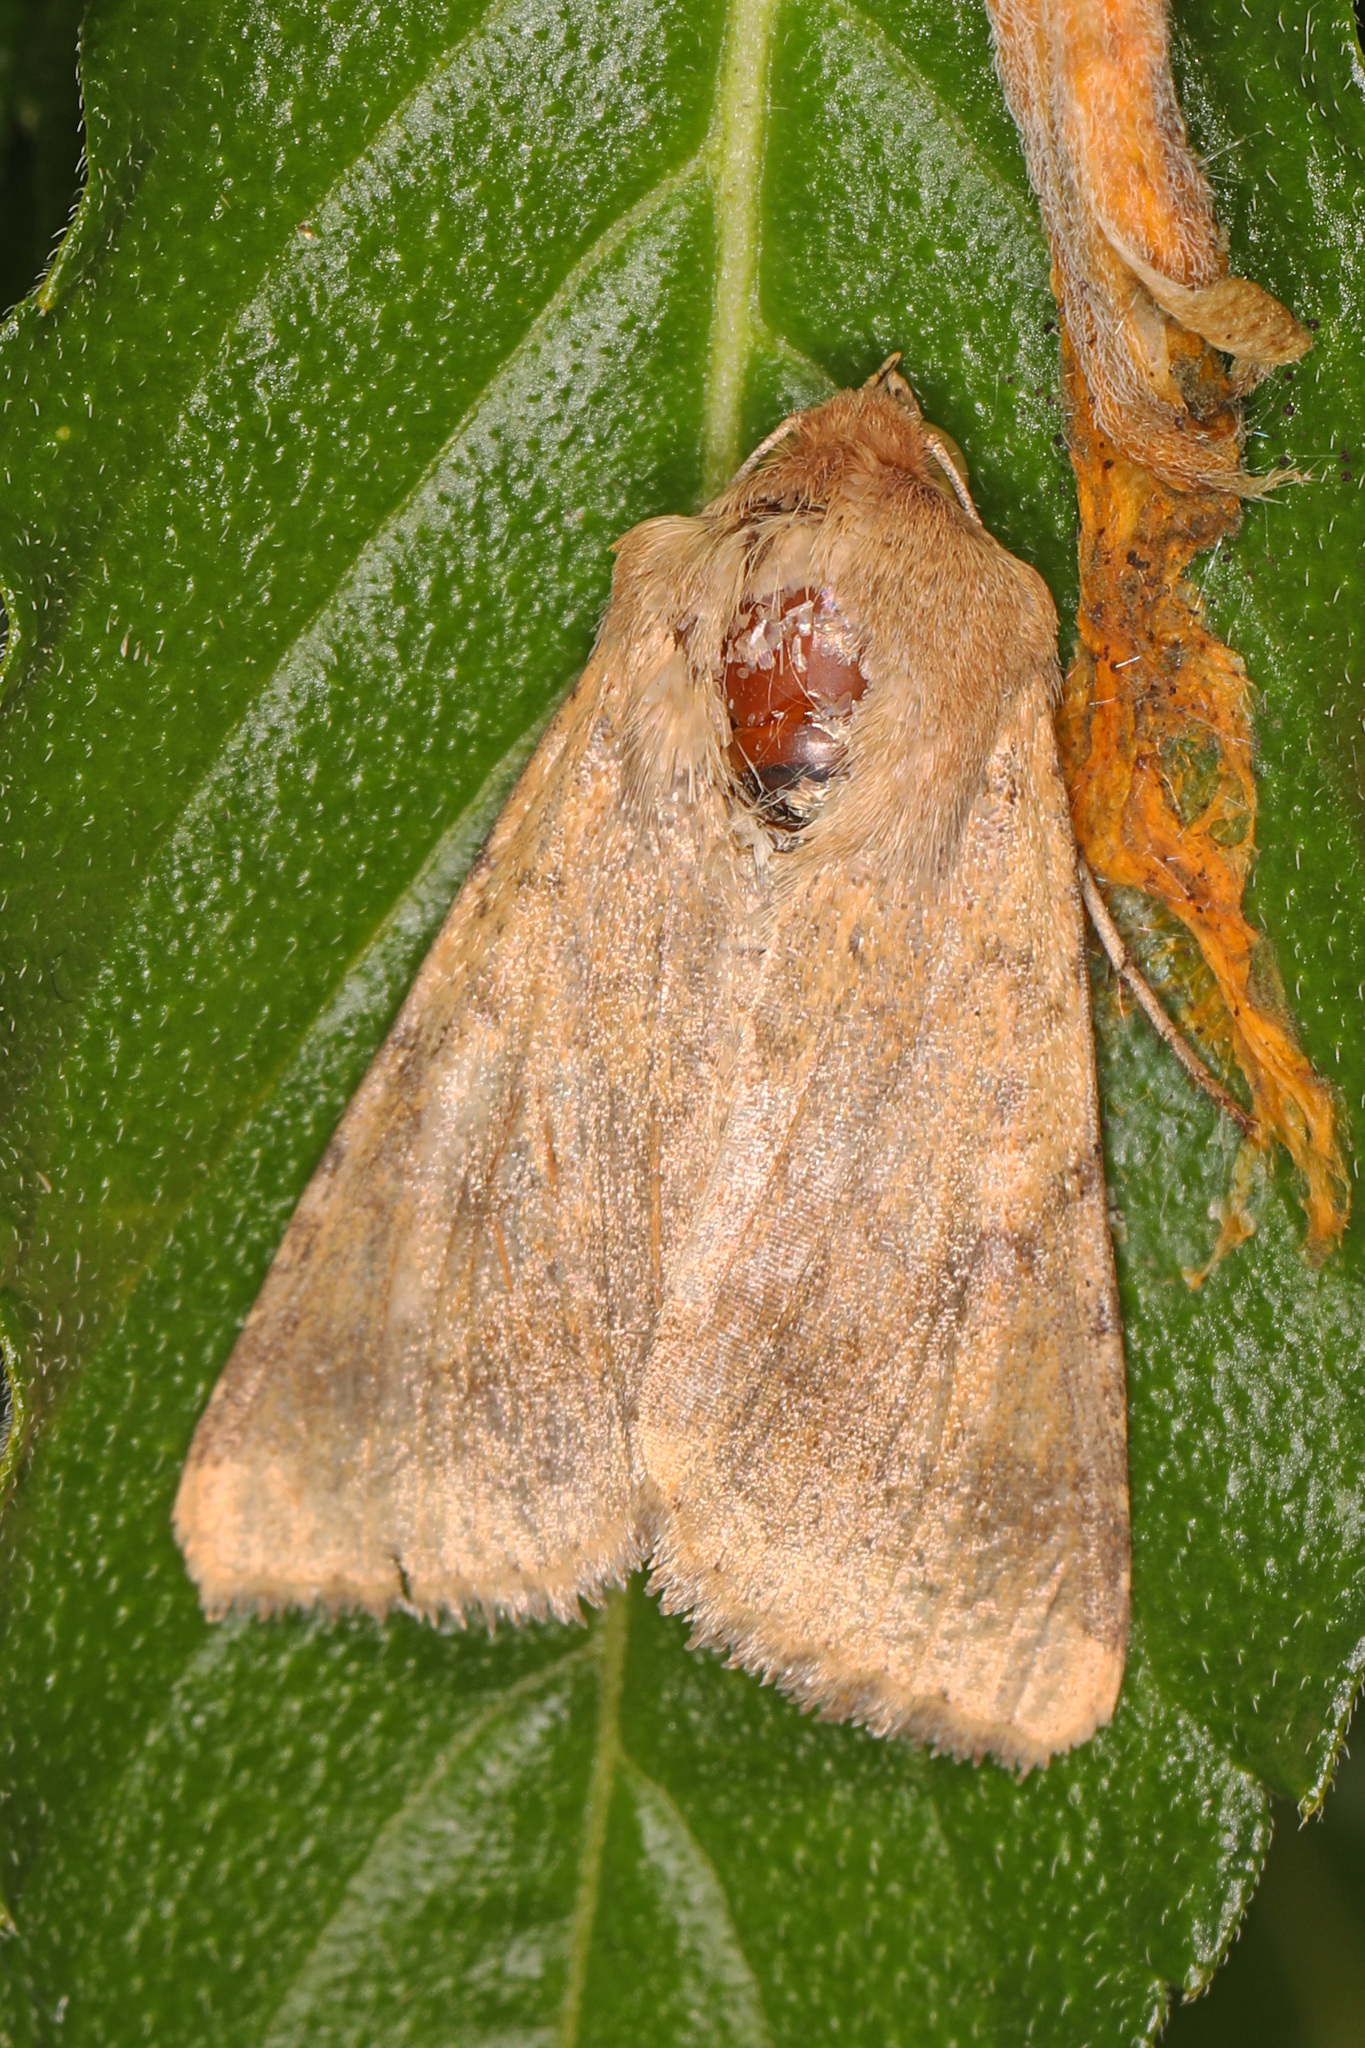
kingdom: Animalia
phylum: Arthropoda
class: Insecta
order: Lepidoptera
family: Noctuidae
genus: Helicoverpa
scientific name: Helicoverpa zea
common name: Bollworm
